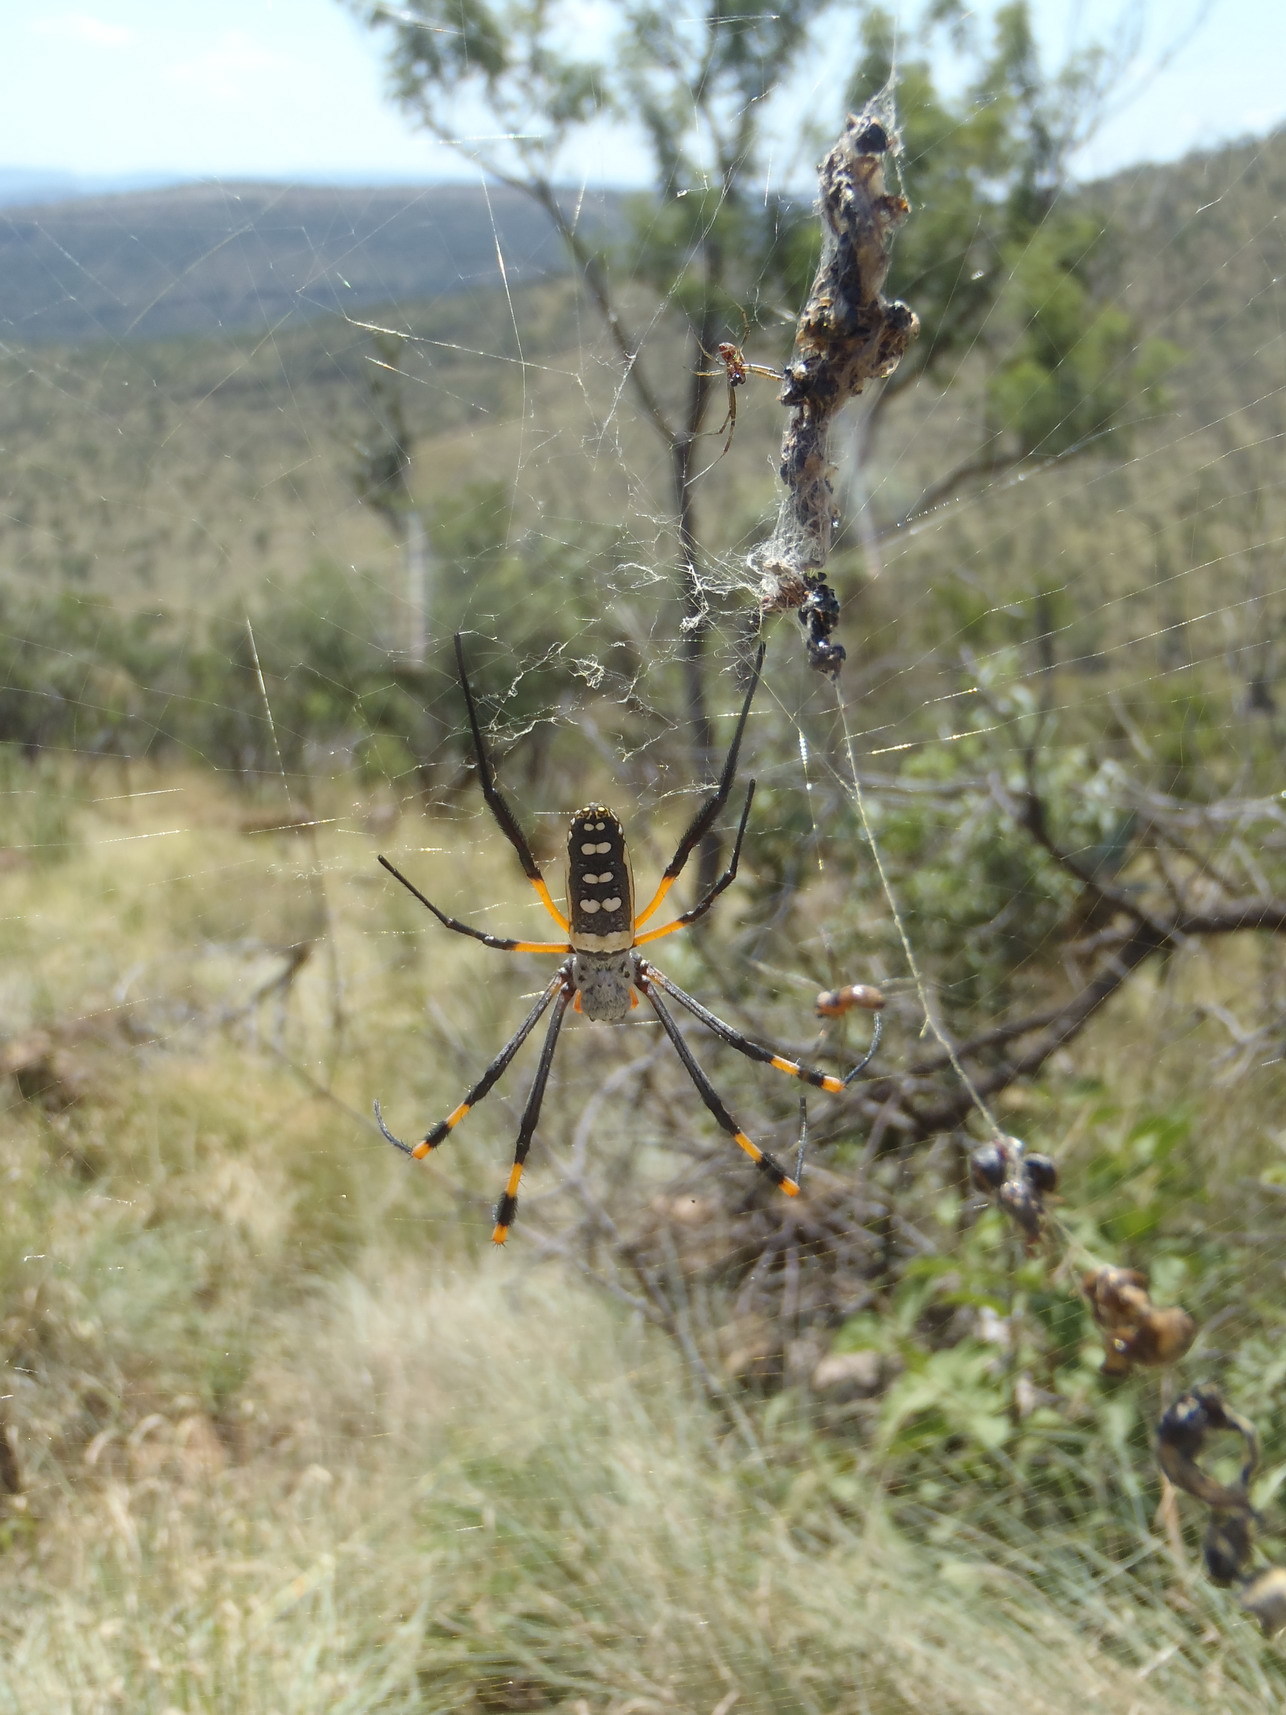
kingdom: Animalia
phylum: Arthropoda
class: Arachnida
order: Araneae
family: Araneidae
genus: Trichonephila
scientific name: Trichonephila senegalensis
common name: Banded golden orb weaver
